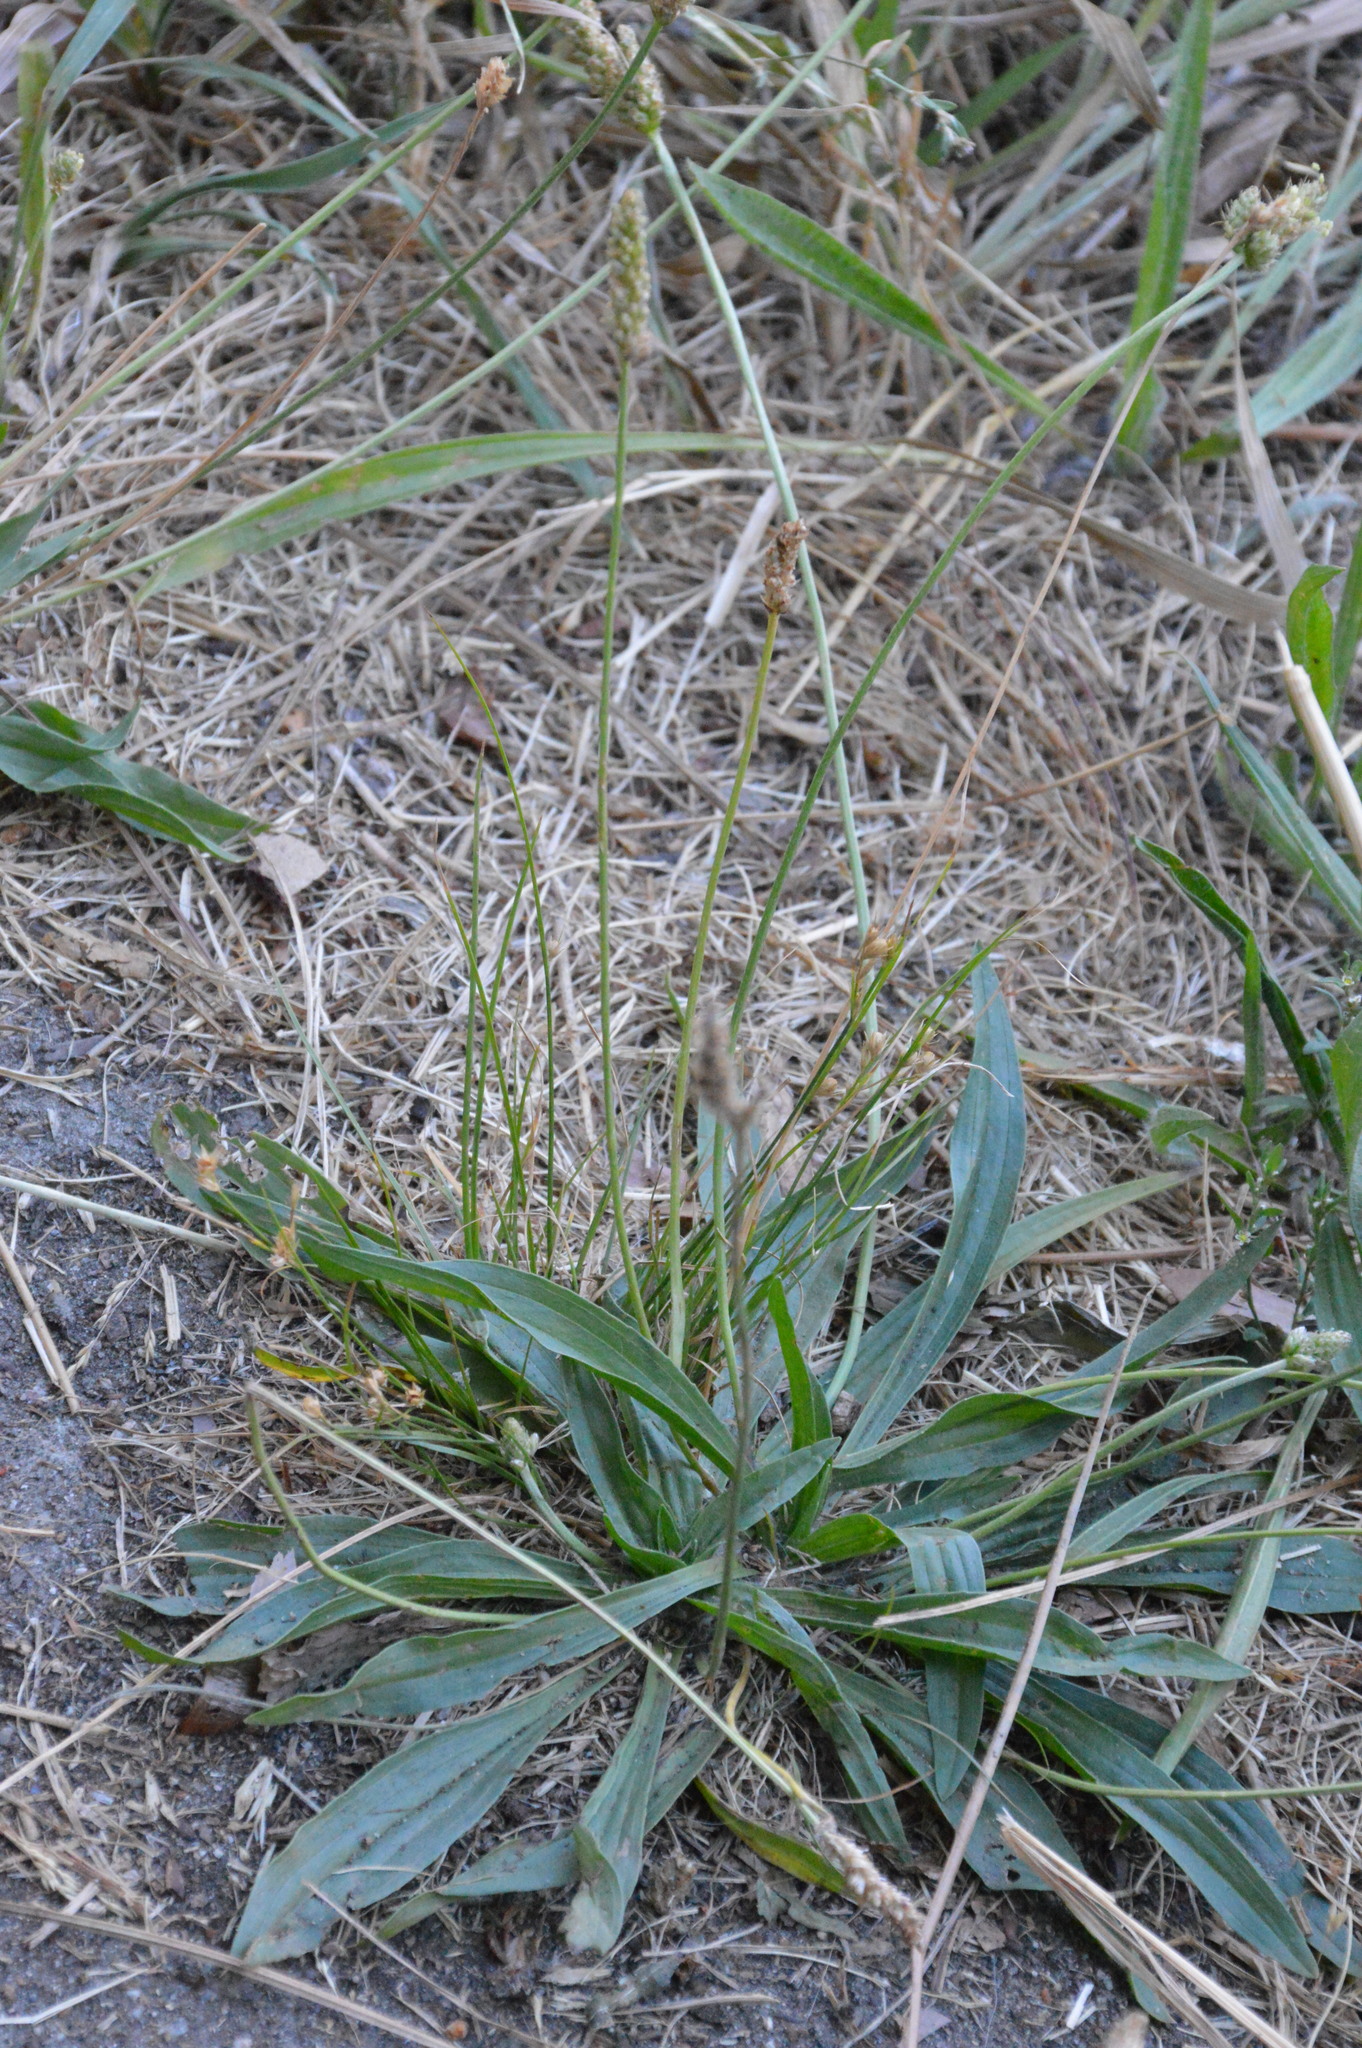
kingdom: Plantae
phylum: Tracheophyta
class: Magnoliopsida
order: Lamiales
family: Plantaginaceae
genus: Plantago
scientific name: Plantago lanceolata
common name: Ribwort plantain
